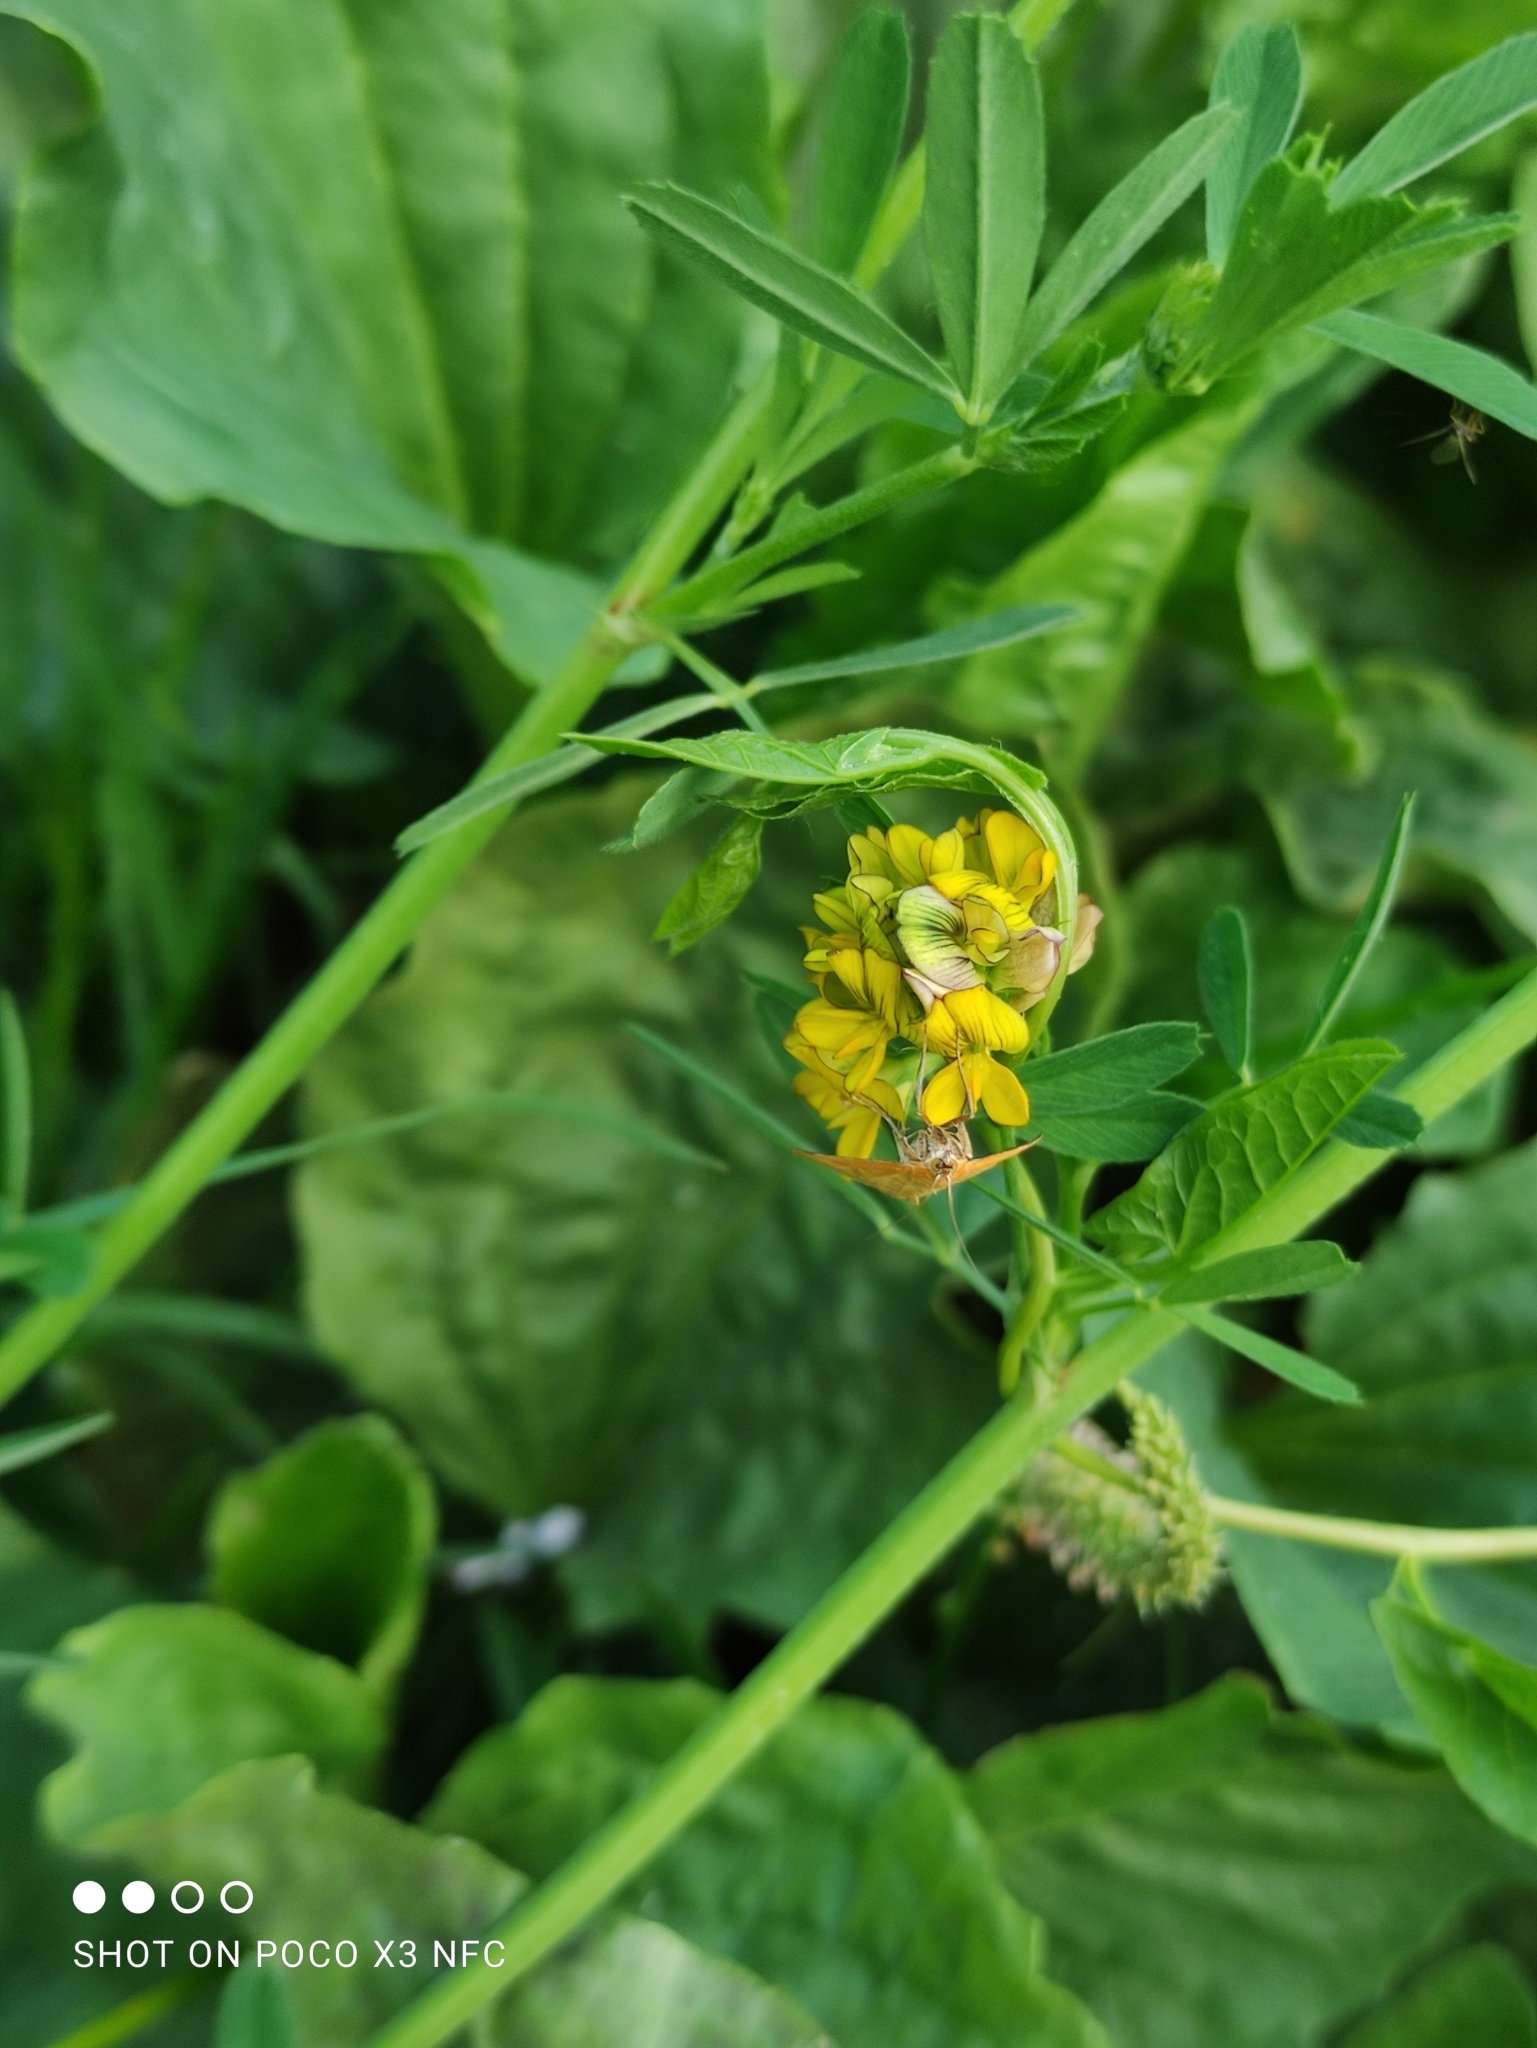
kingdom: Plantae
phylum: Tracheophyta
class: Magnoliopsida
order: Fabales
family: Fabaceae
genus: Medicago
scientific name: Medicago falcata
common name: Sickle medick
